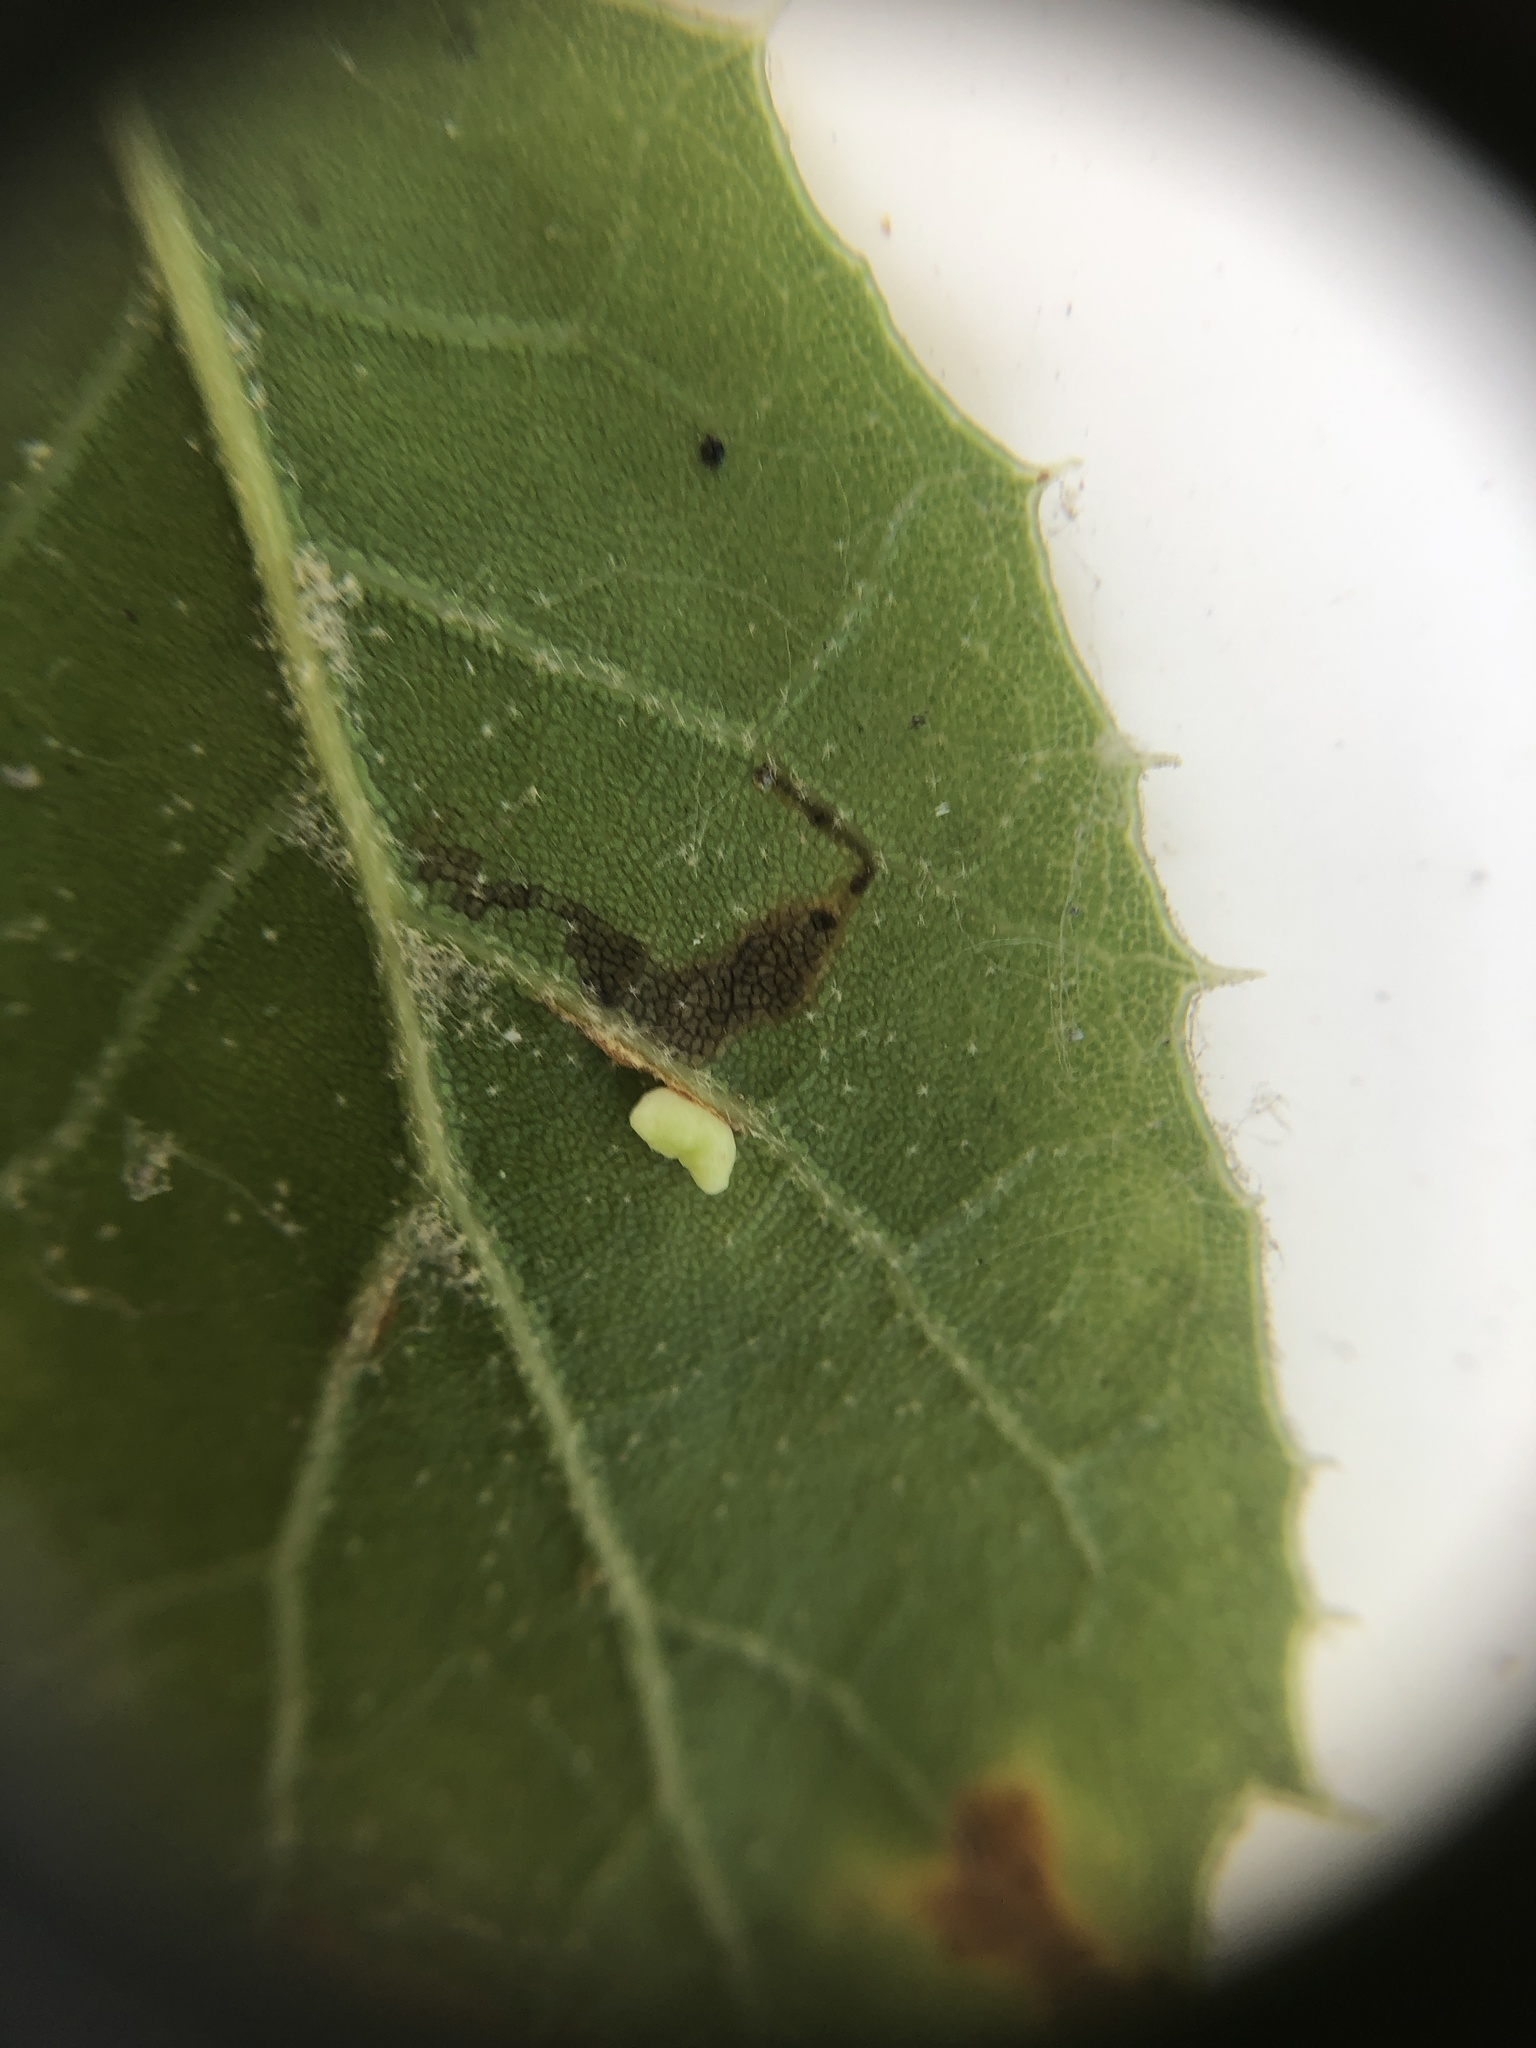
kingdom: Animalia
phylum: Arthropoda
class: Insecta
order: Hymenoptera
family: Cynipidae
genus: Dryocosmus
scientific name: Dryocosmus
